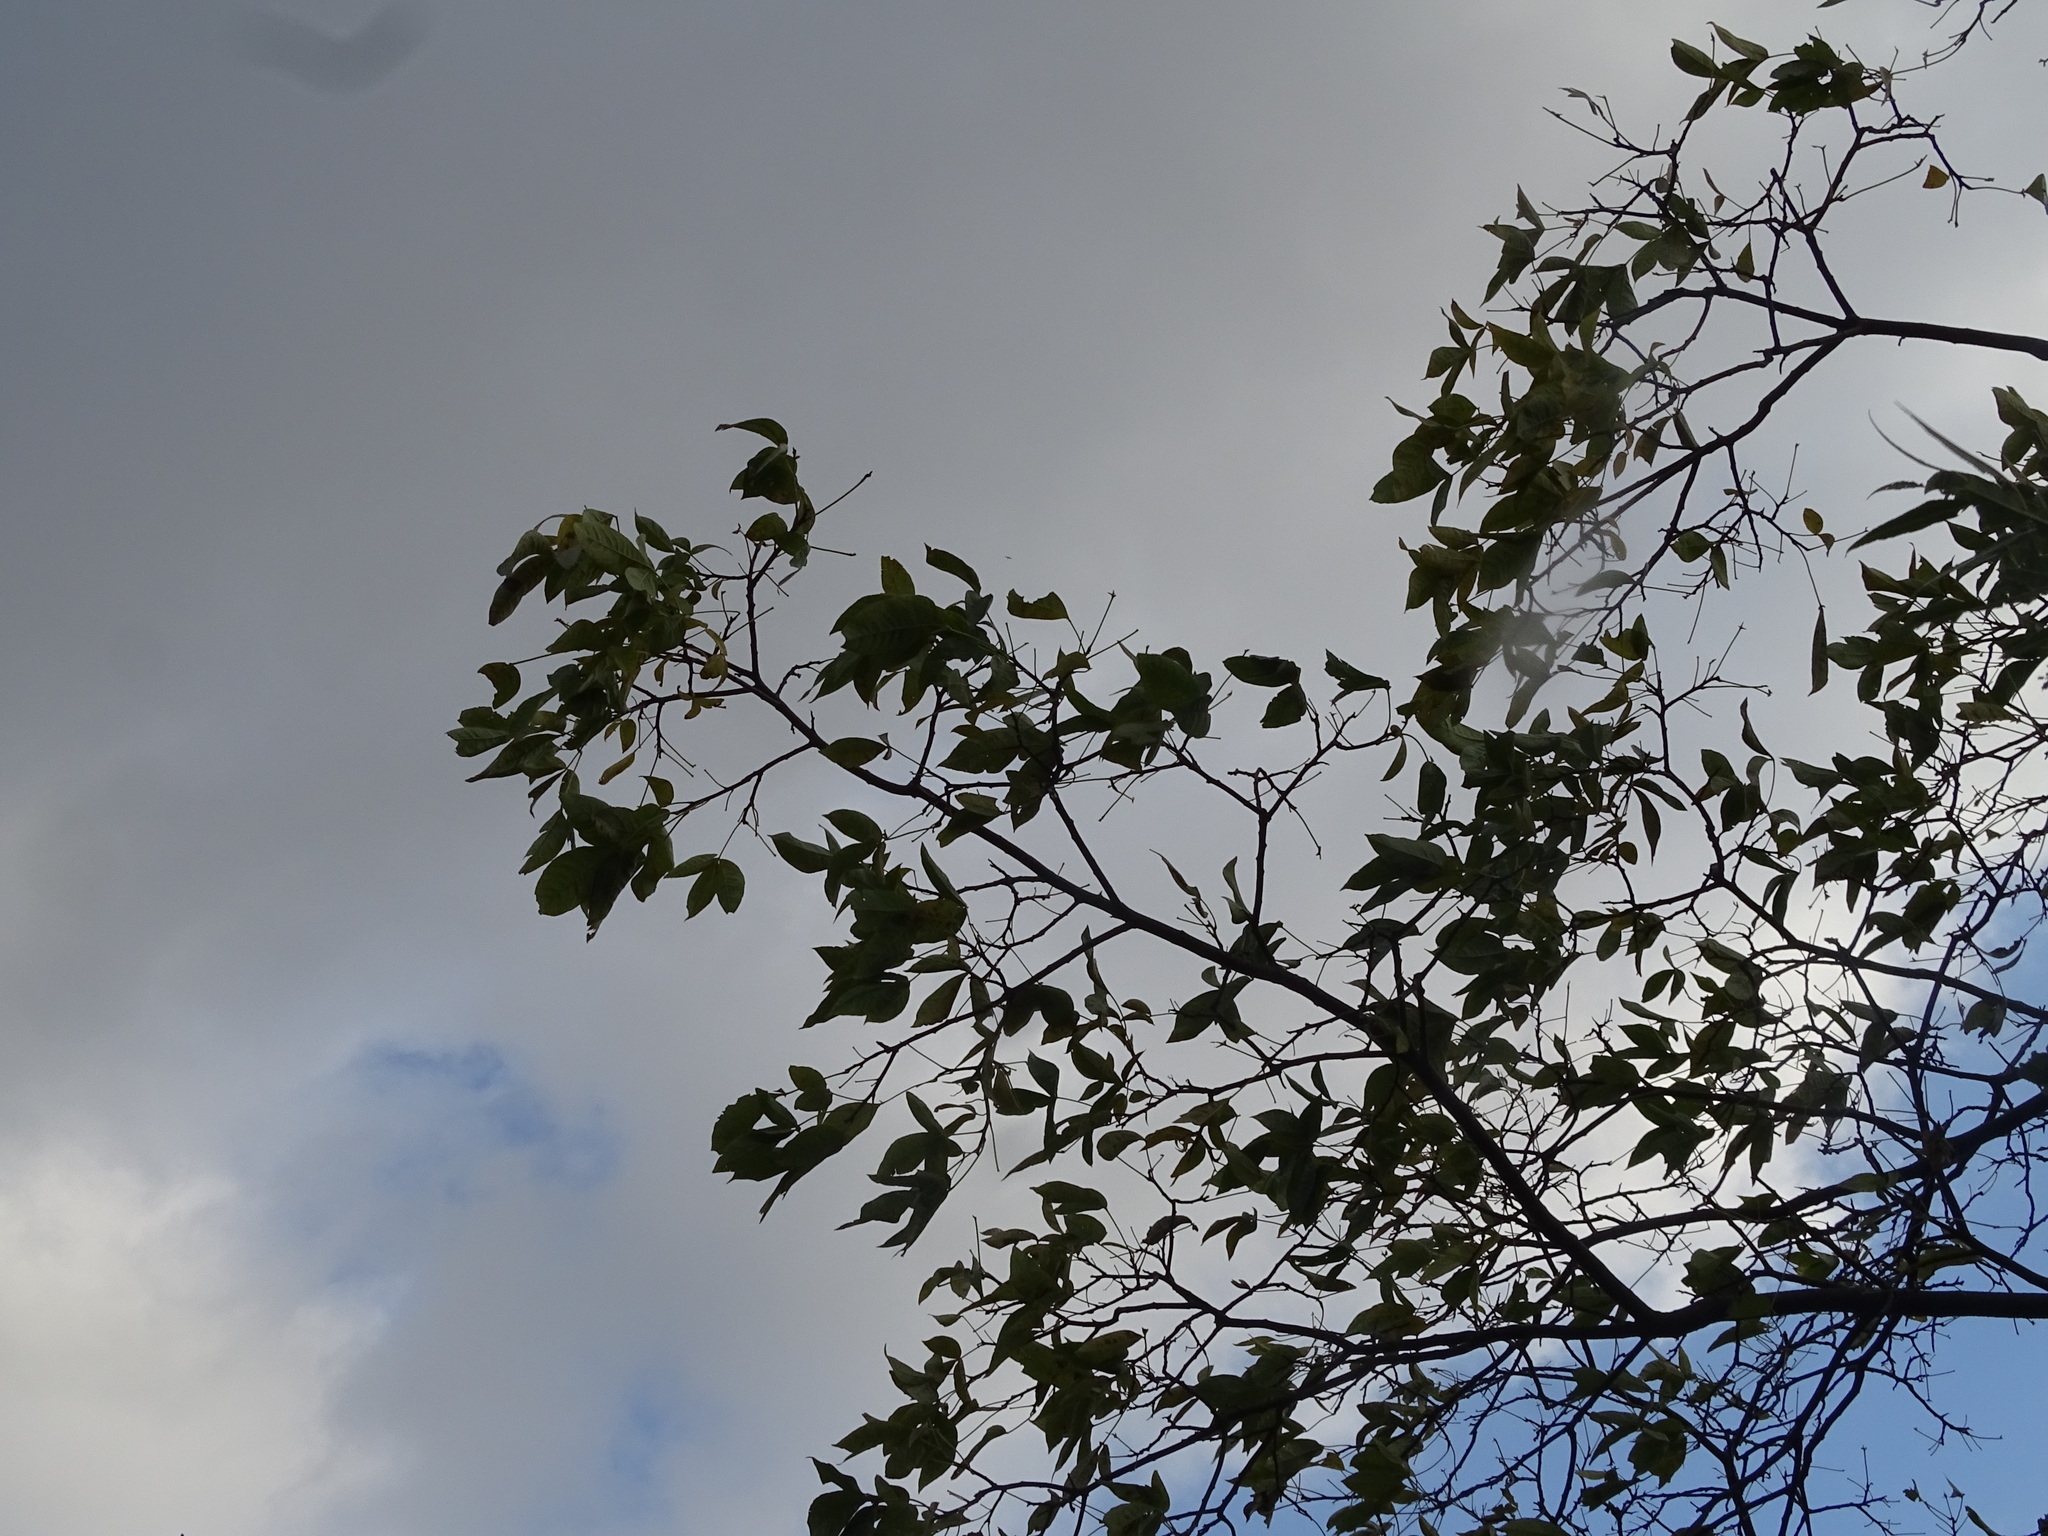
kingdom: Plantae
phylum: Tracheophyta
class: Magnoliopsida
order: Sapindales
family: Rutaceae
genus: Ptelea
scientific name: Ptelea trifoliata
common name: Common hop-tree
